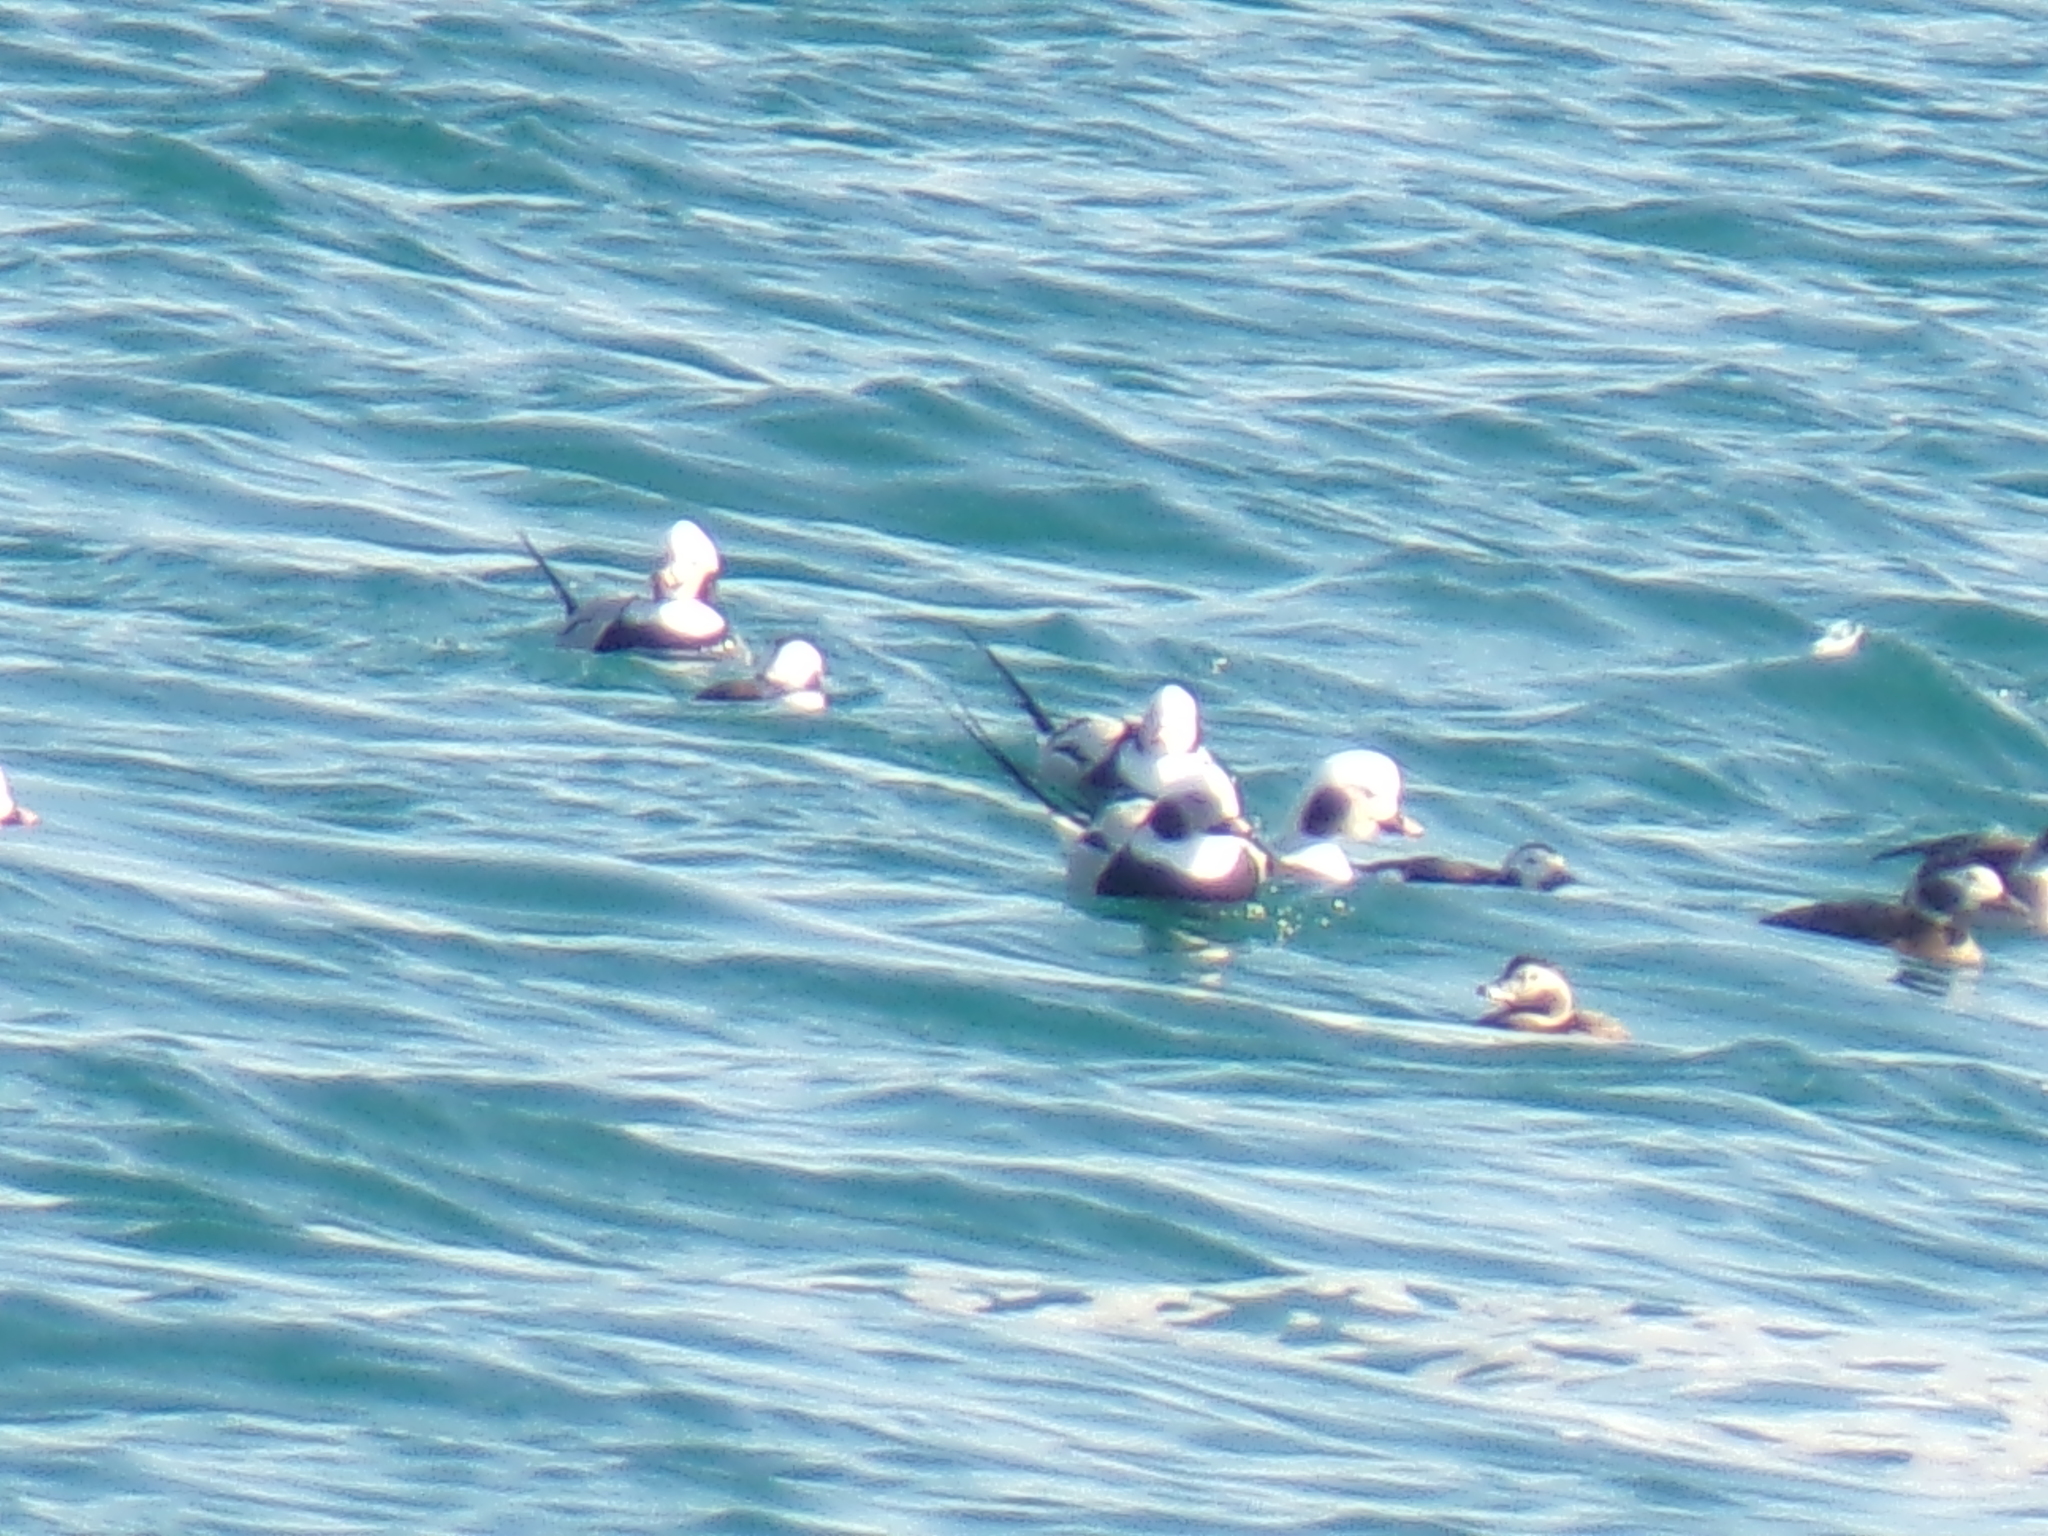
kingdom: Animalia
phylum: Chordata
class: Aves
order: Anseriformes
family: Anatidae
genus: Clangula
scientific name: Clangula hyemalis
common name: Long-tailed duck
